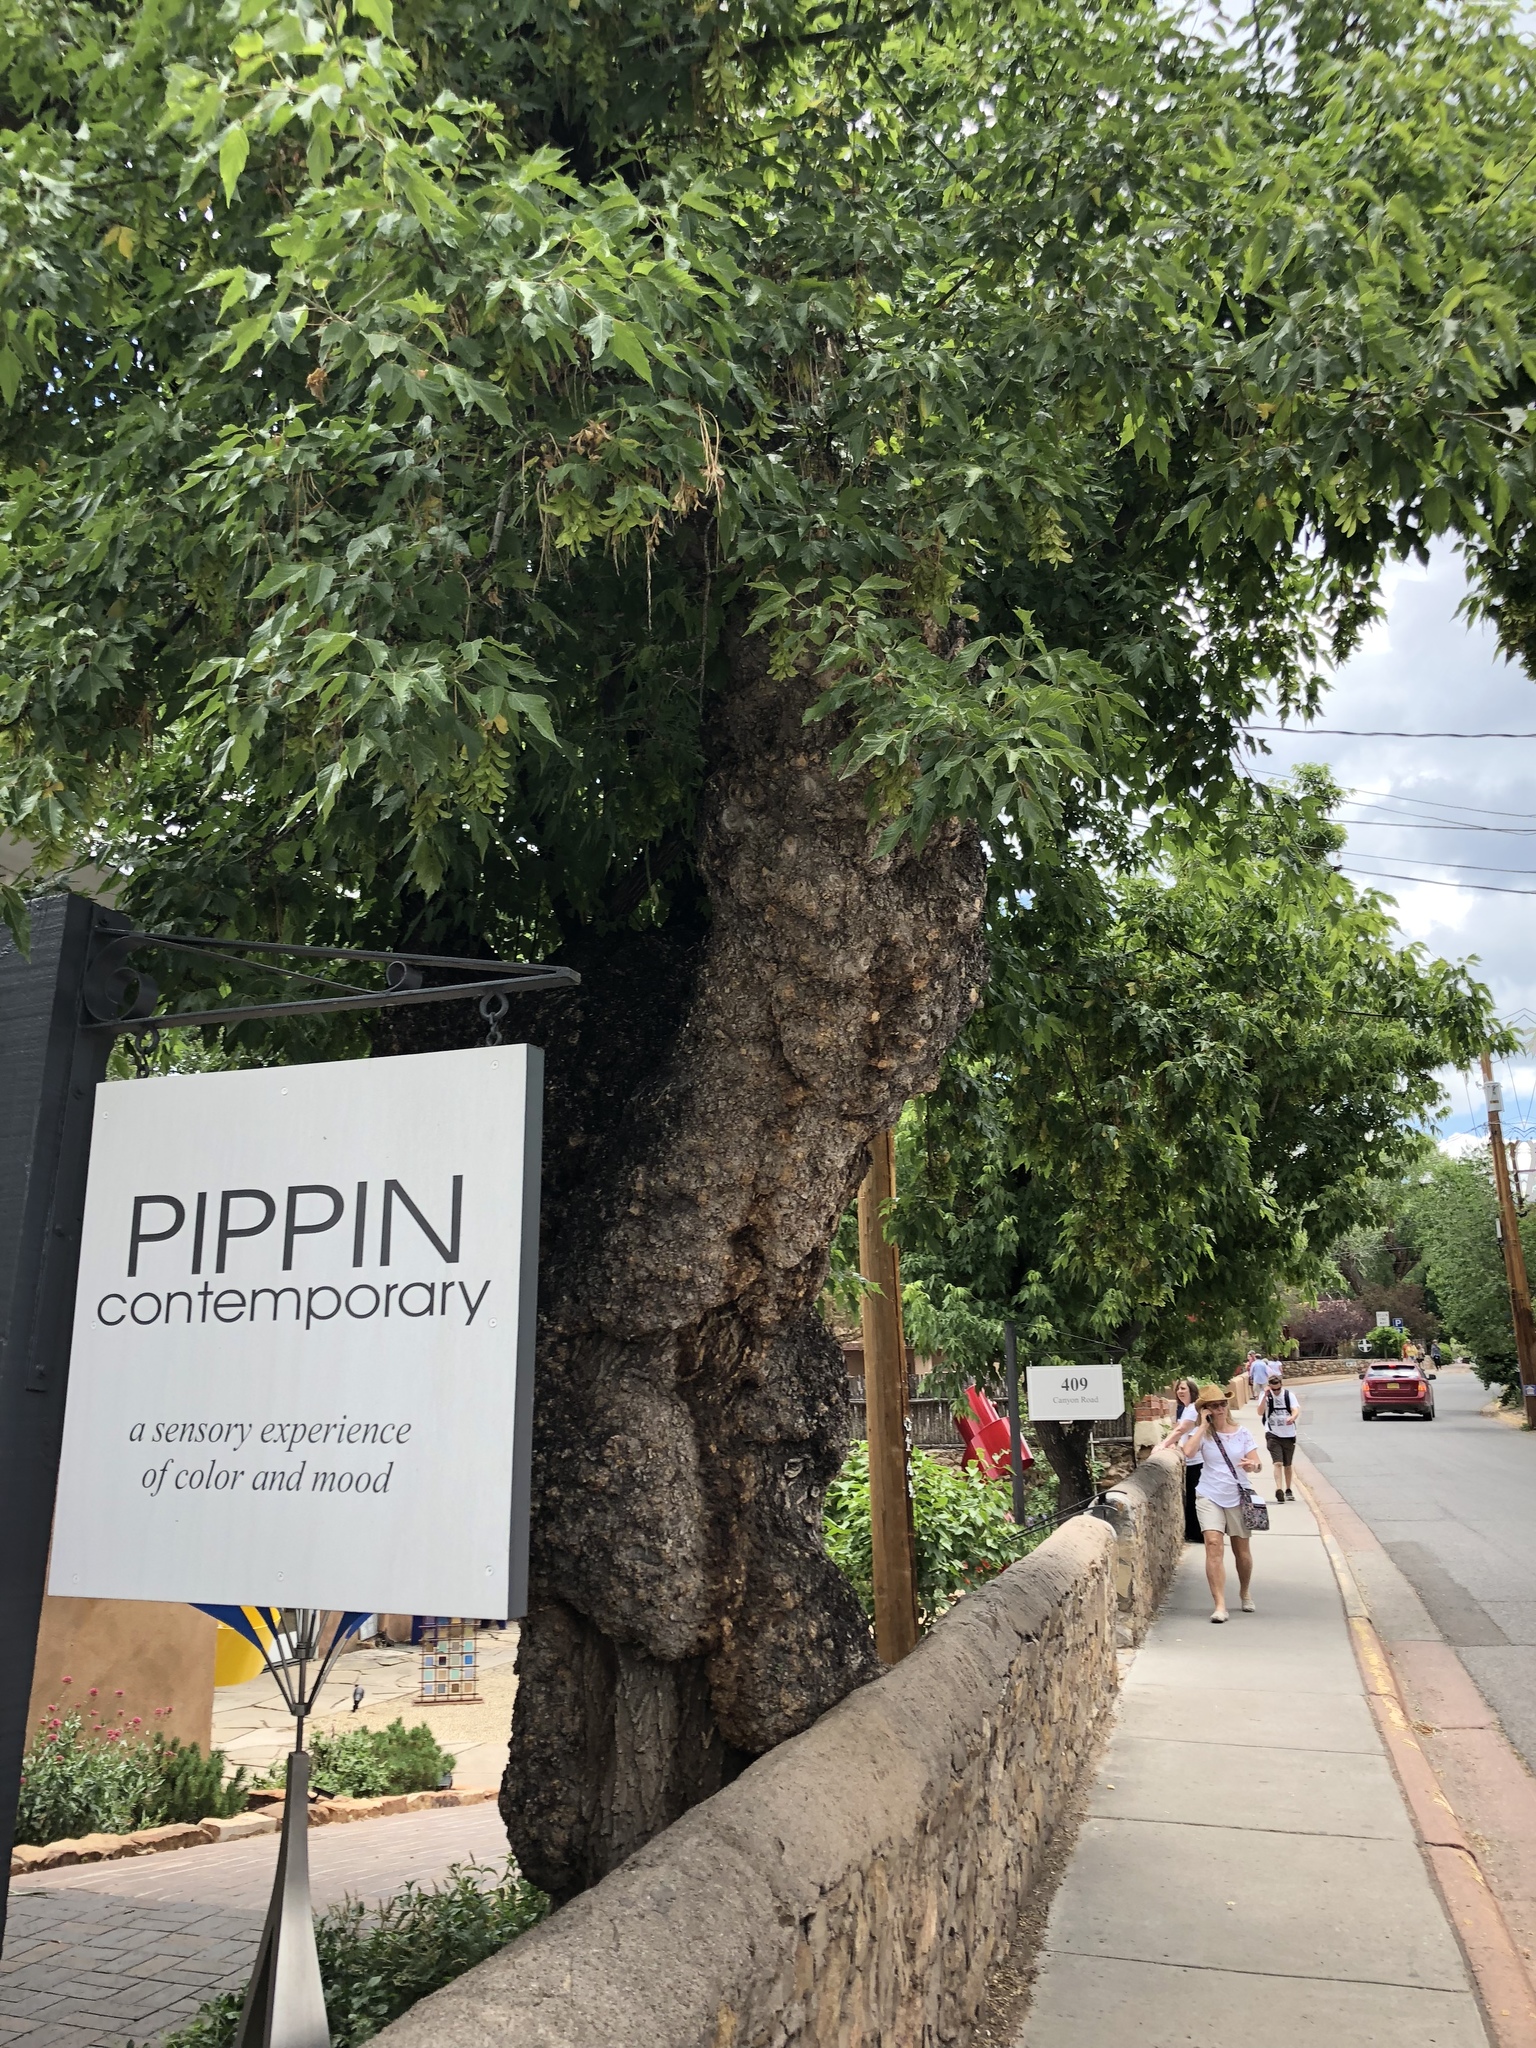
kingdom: Plantae
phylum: Tracheophyta
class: Magnoliopsida
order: Sapindales
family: Sapindaceae
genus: Acer
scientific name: Acer negundo
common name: Ashleaf maple
